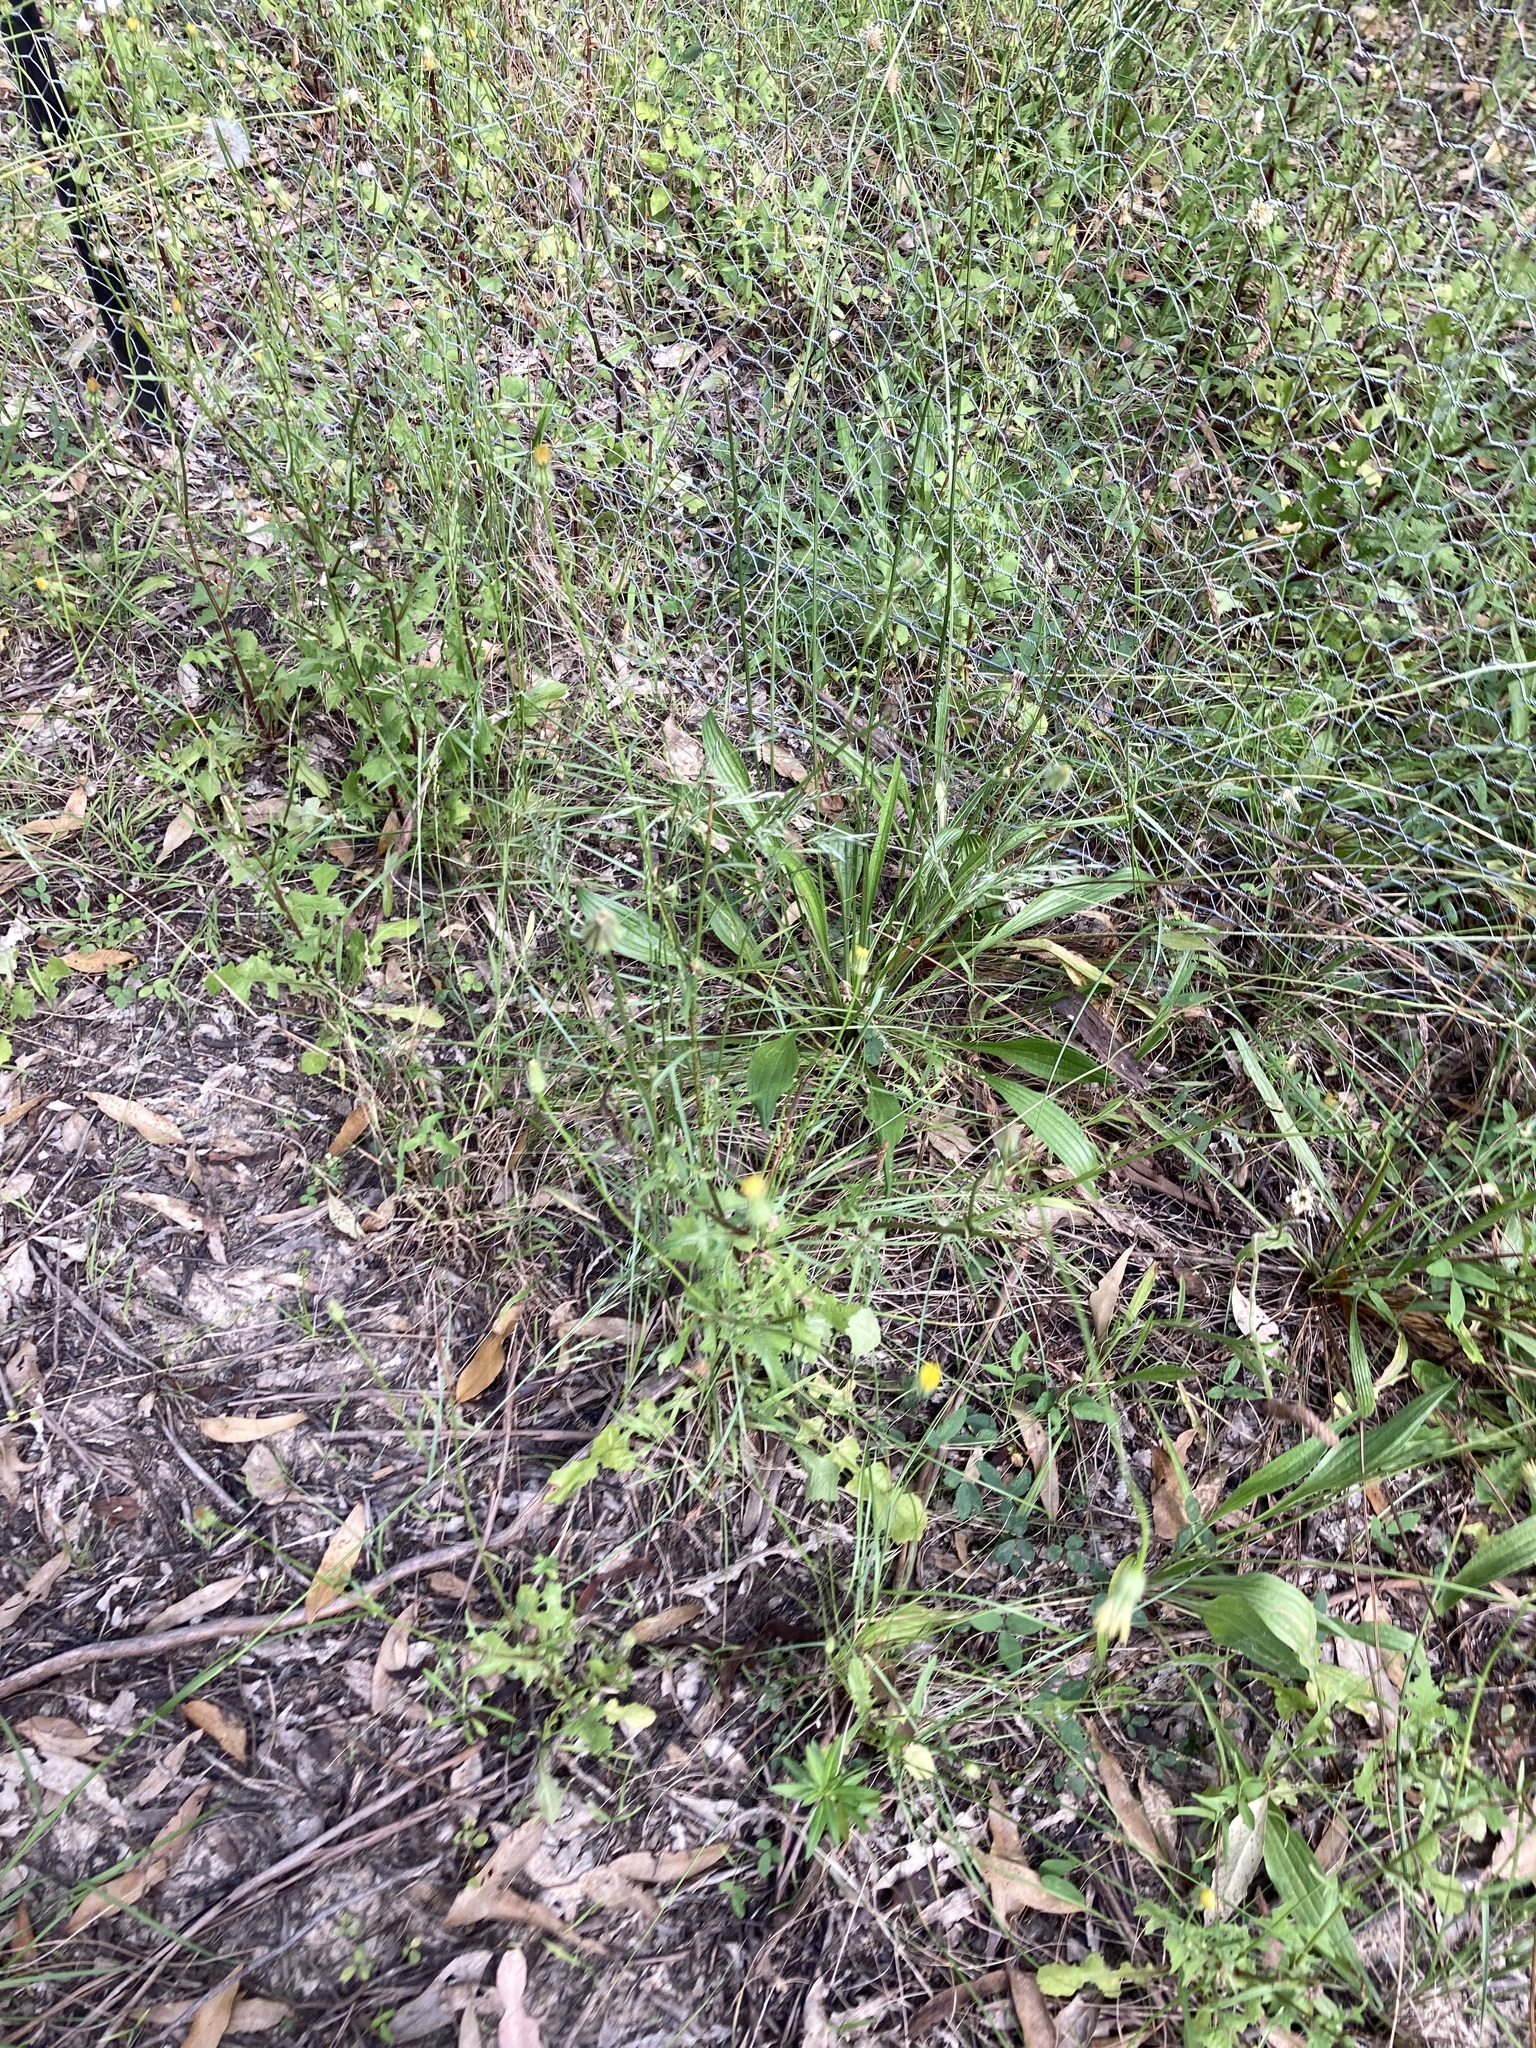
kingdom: Plantae
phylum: Tracheophyta
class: Magnoliopsida
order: Asterales
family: Asteraceae
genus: Urospermum
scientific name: Urospermum picroides
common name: False hawkbit
